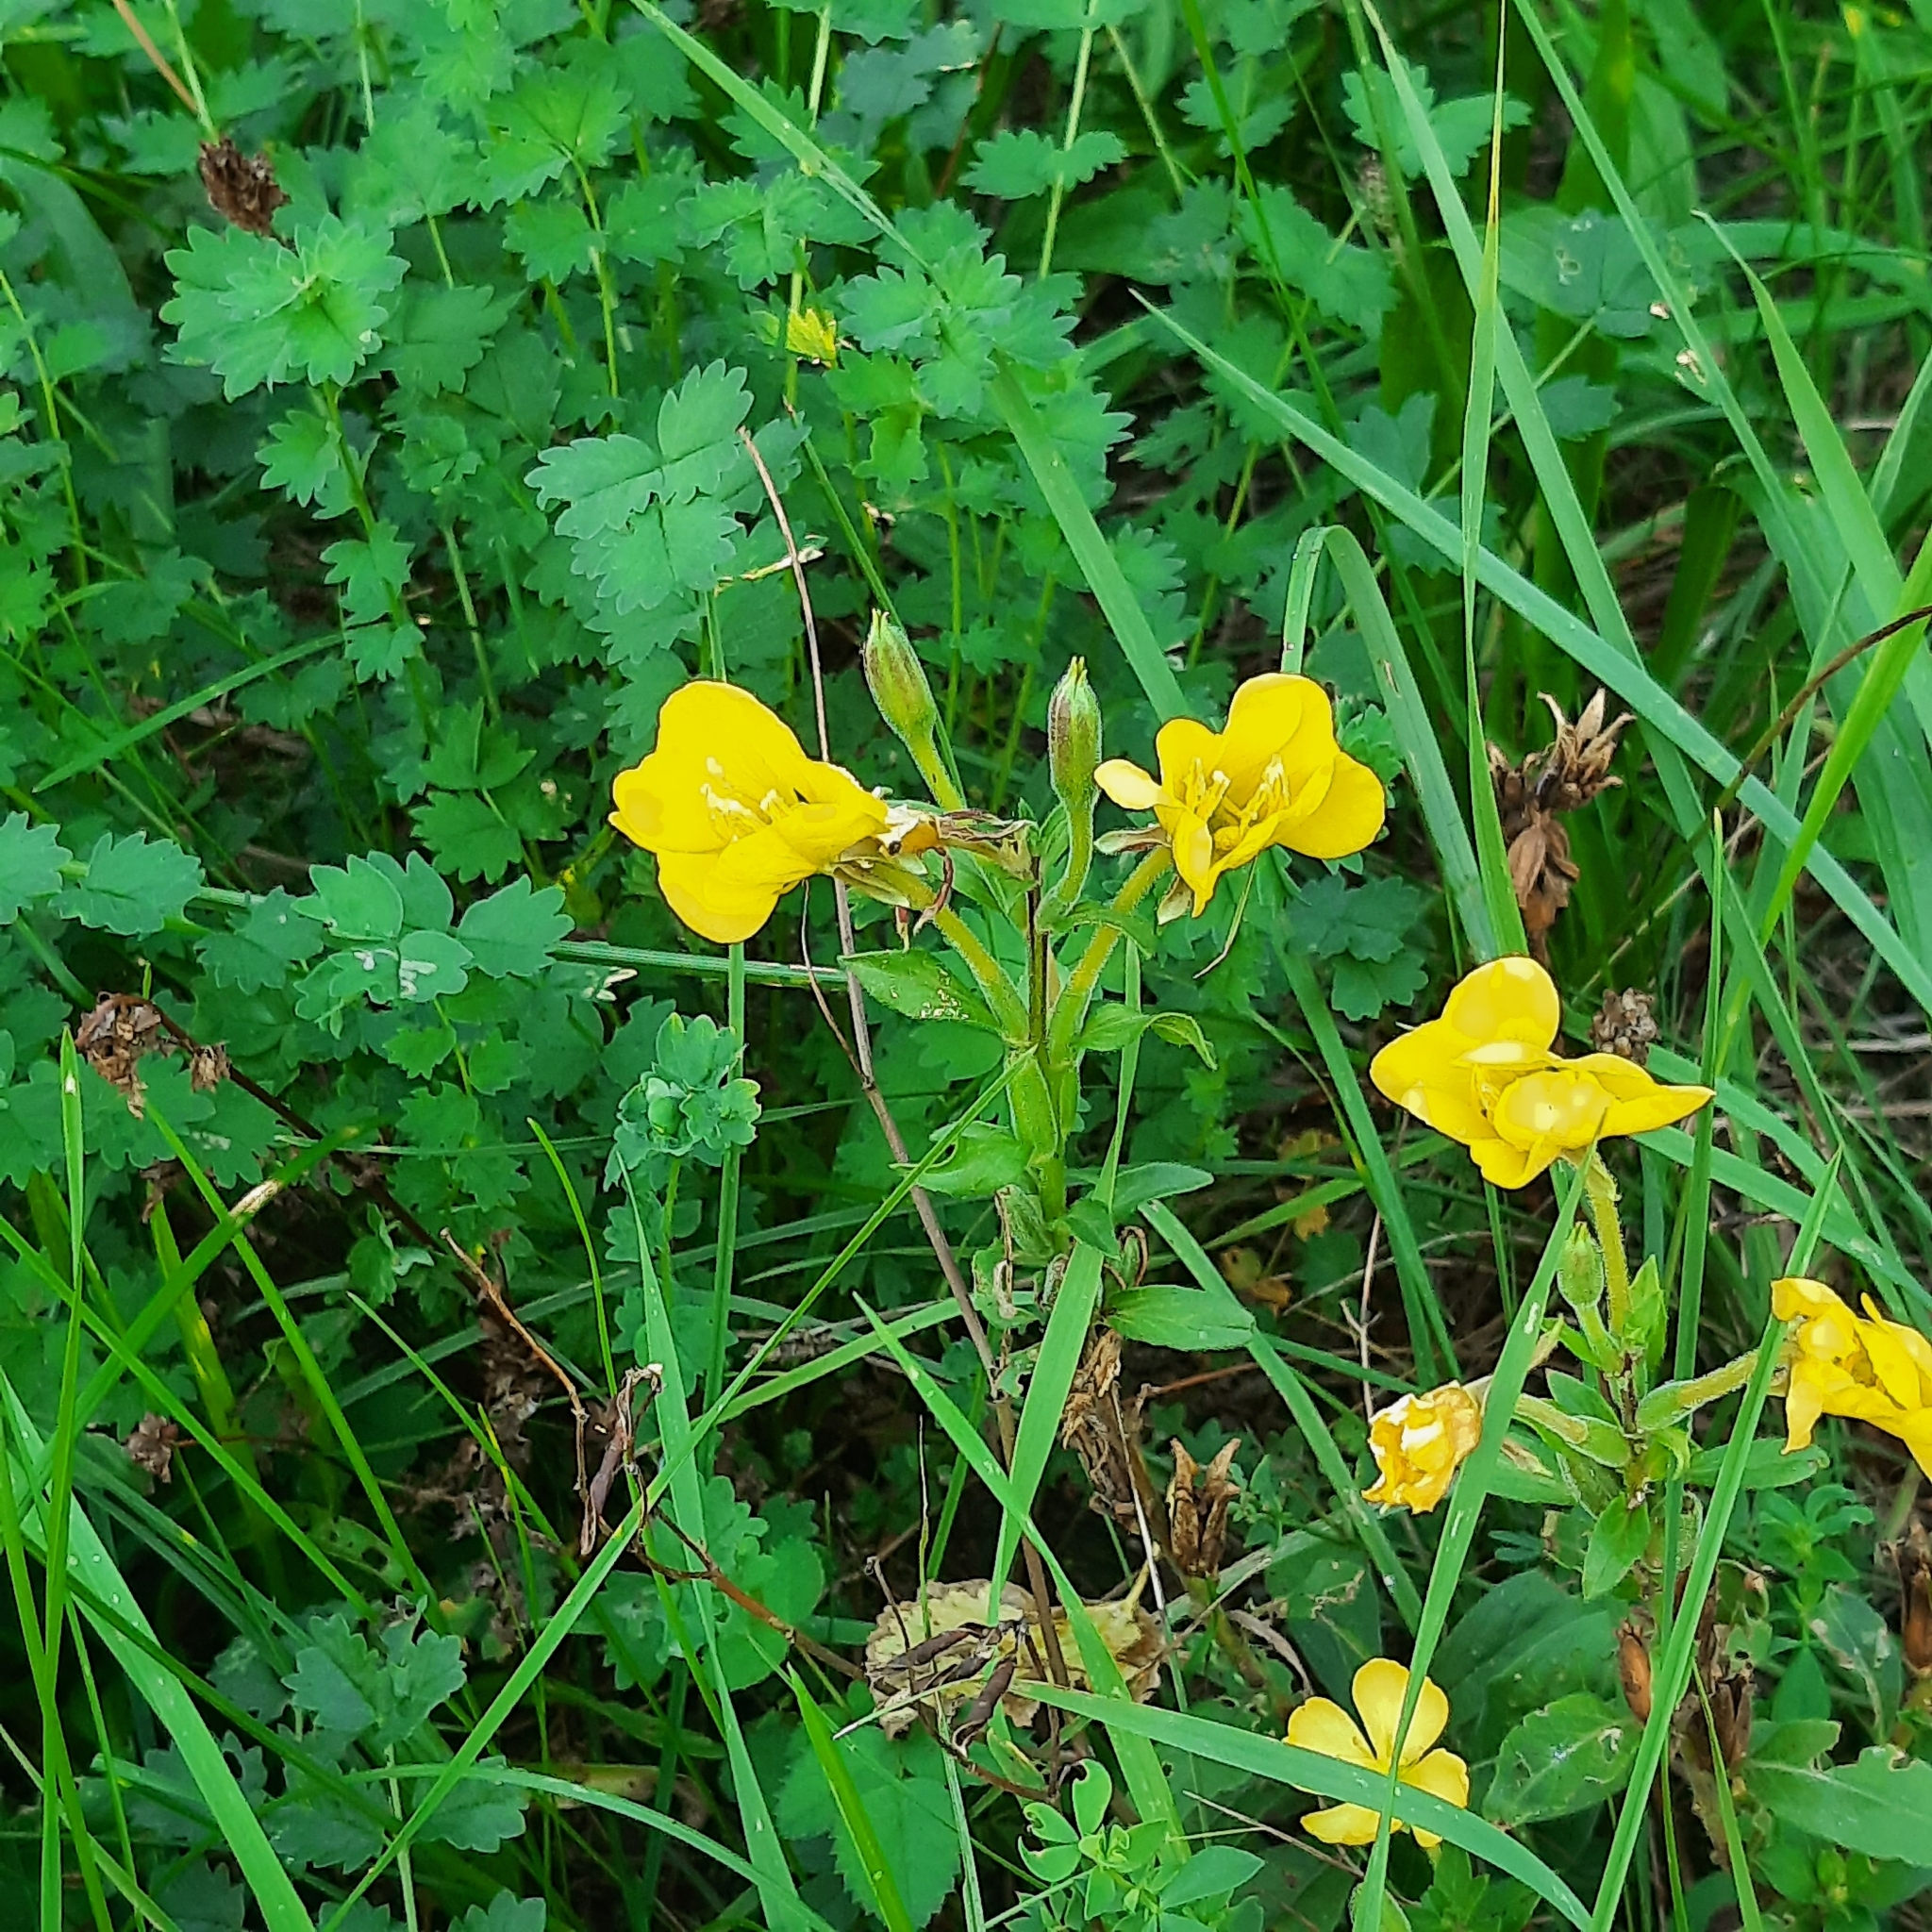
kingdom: Plantae
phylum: Tracheophyta
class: Magnoliopsida
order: Myrtales
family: Onagraceae
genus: Oenothera
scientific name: Oenothera
